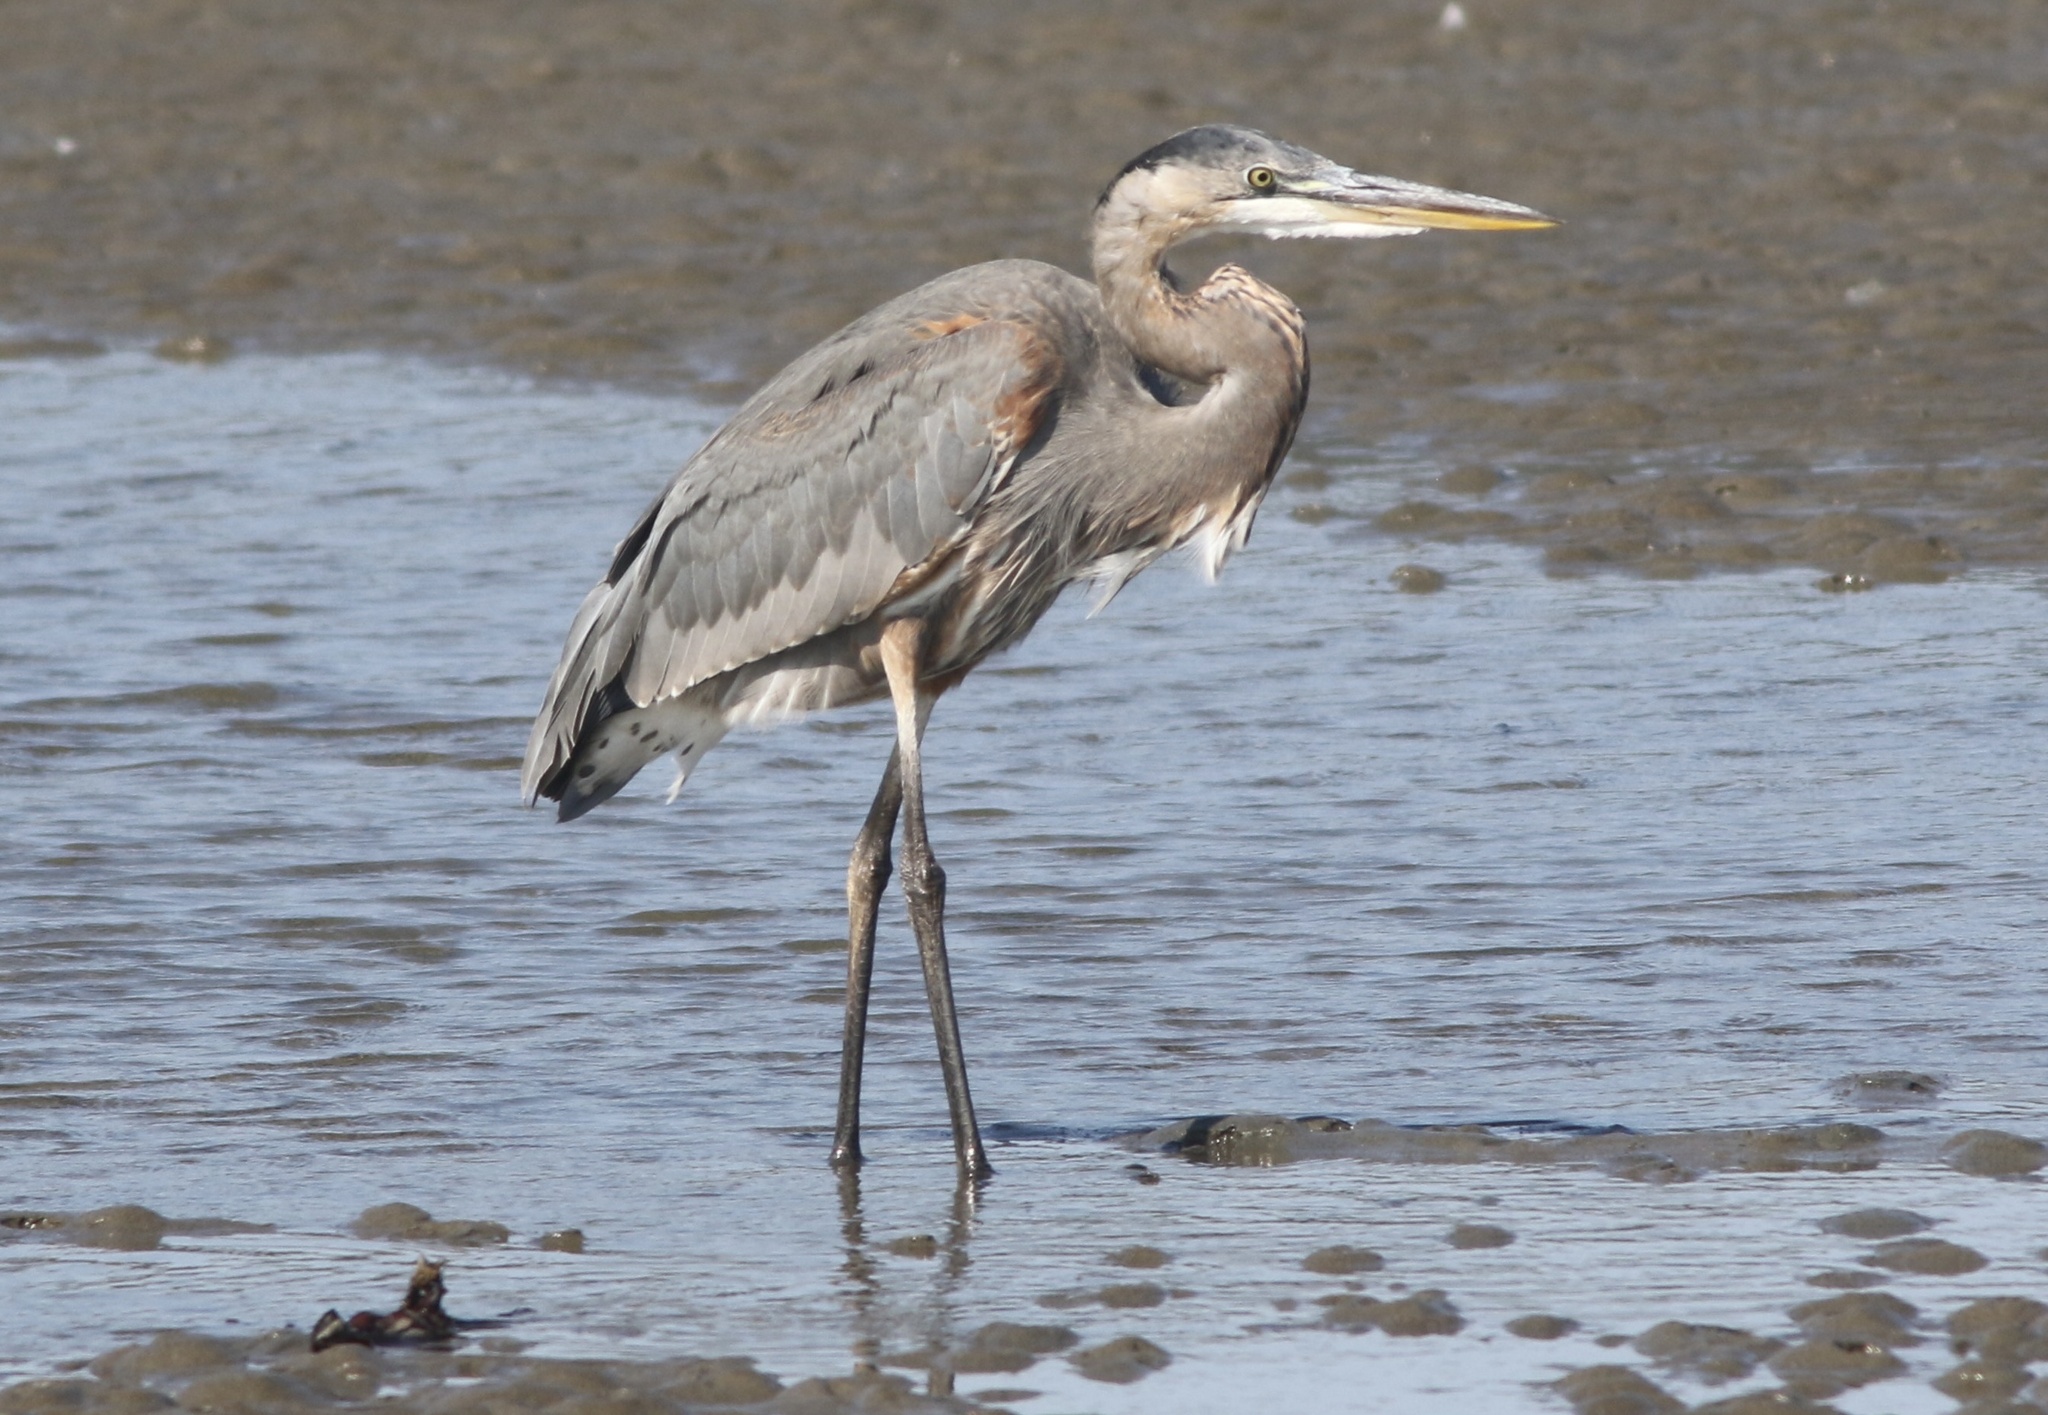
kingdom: Animalia
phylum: Chordata
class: Aves
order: Pelecaniformes
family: Ardeidae
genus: Ardea
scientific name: Ardea herodias
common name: Great blue heron
